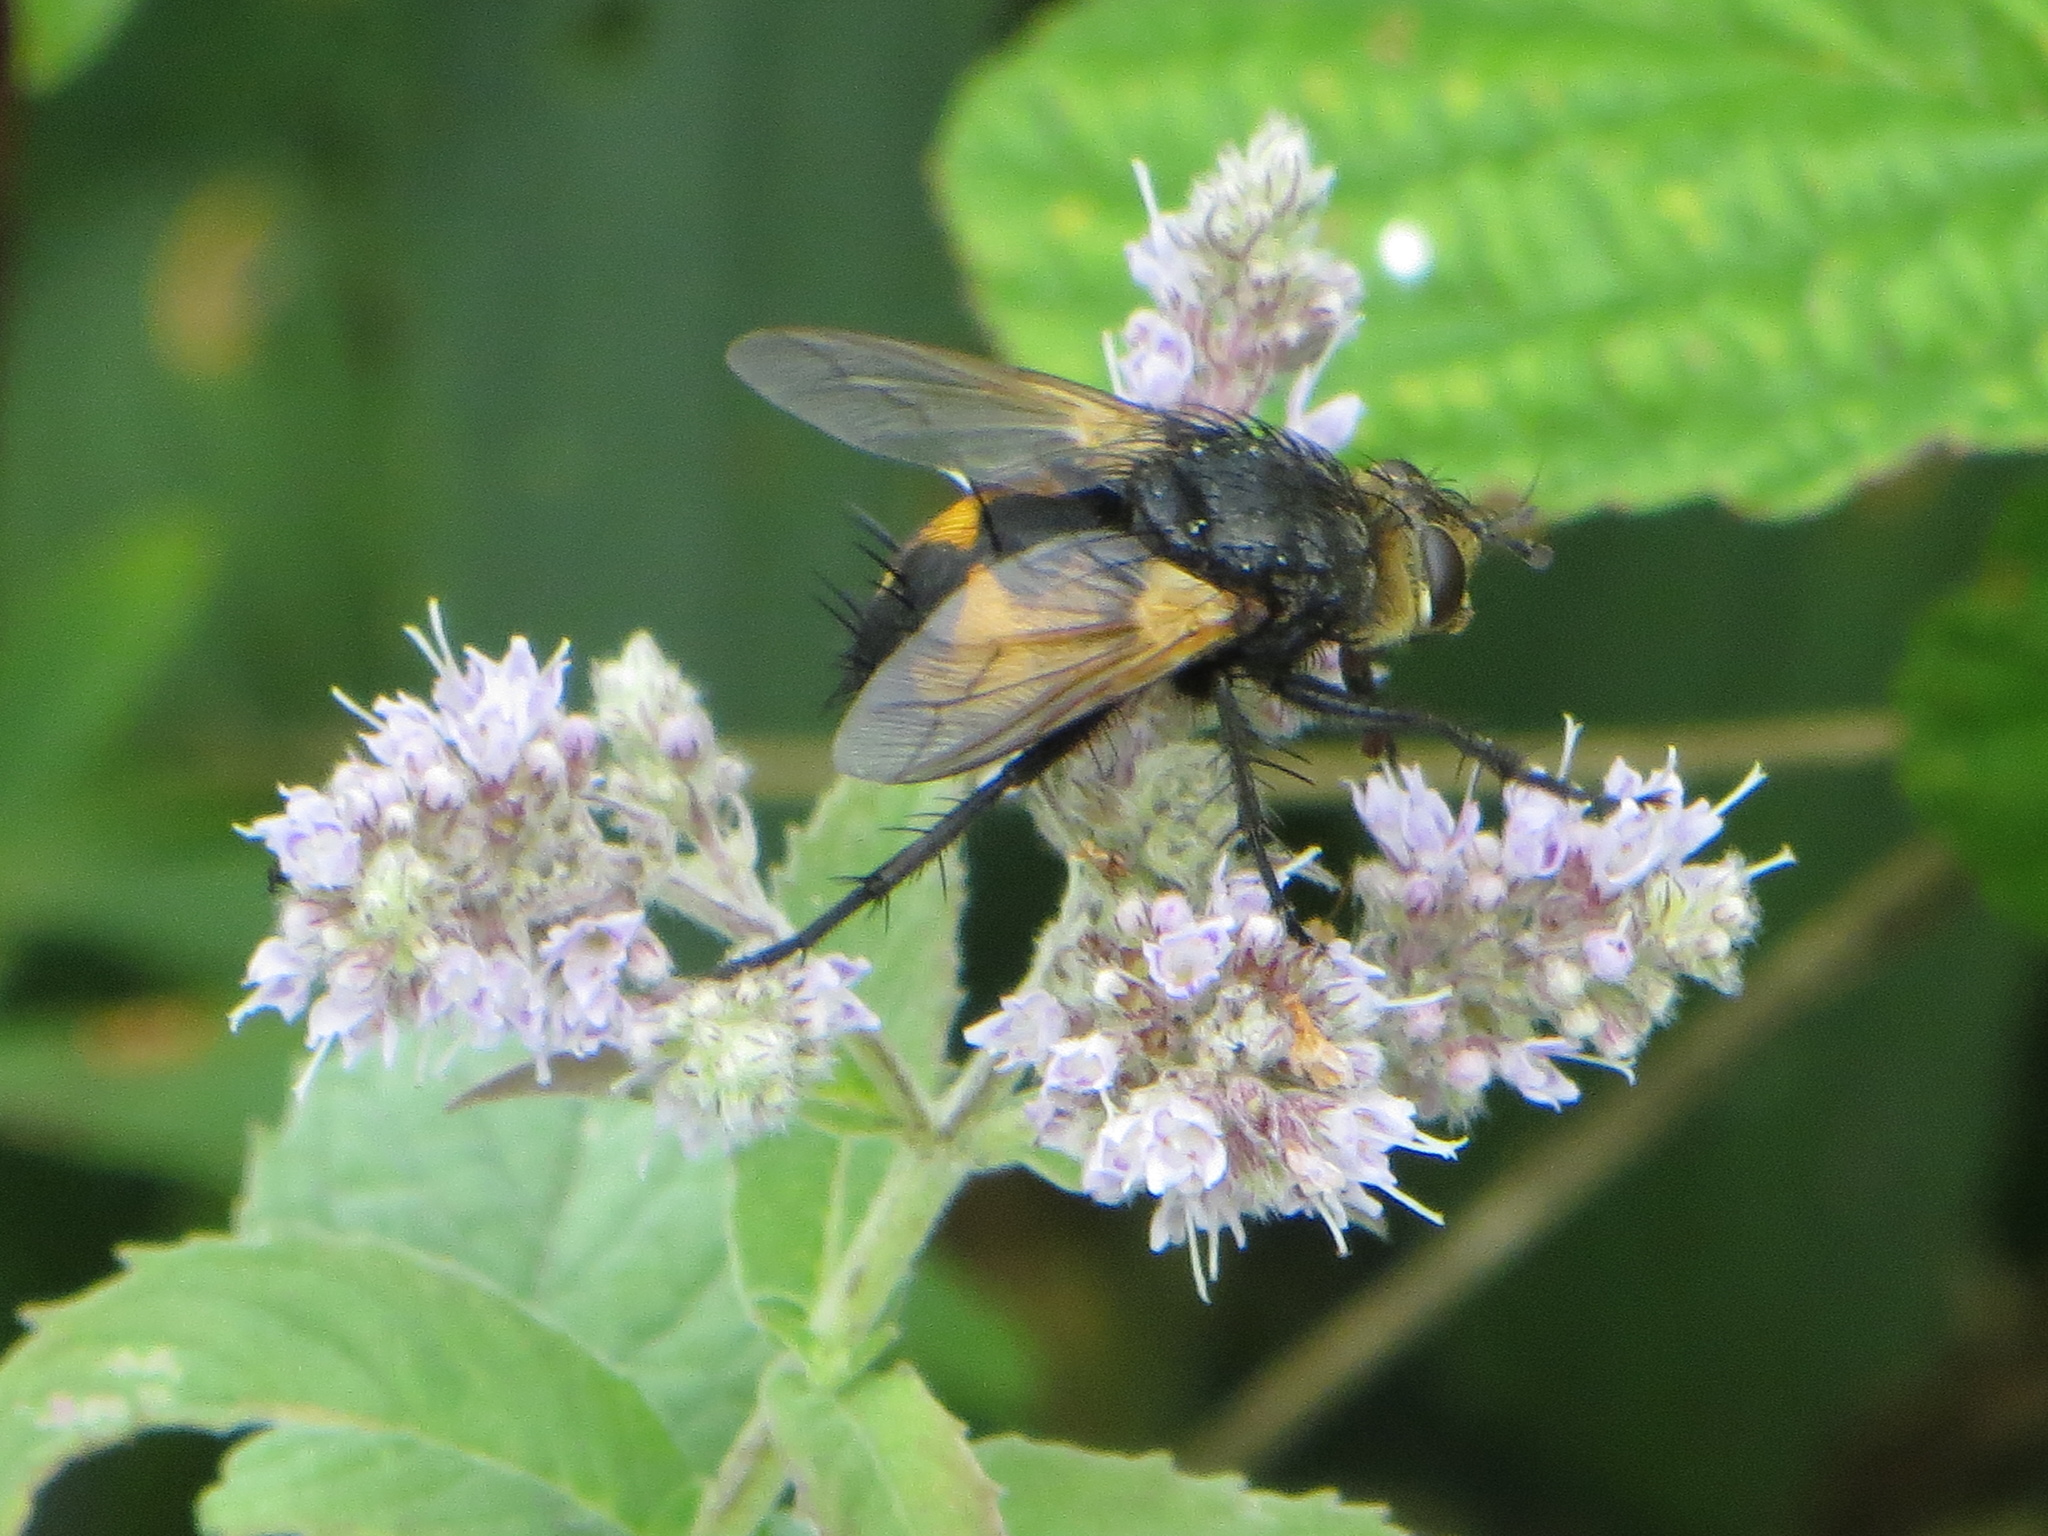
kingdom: Animalia
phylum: Arthropoda
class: Insecta
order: Diptera
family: Tachinidae
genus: Nowickia
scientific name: Nowickia ferox
